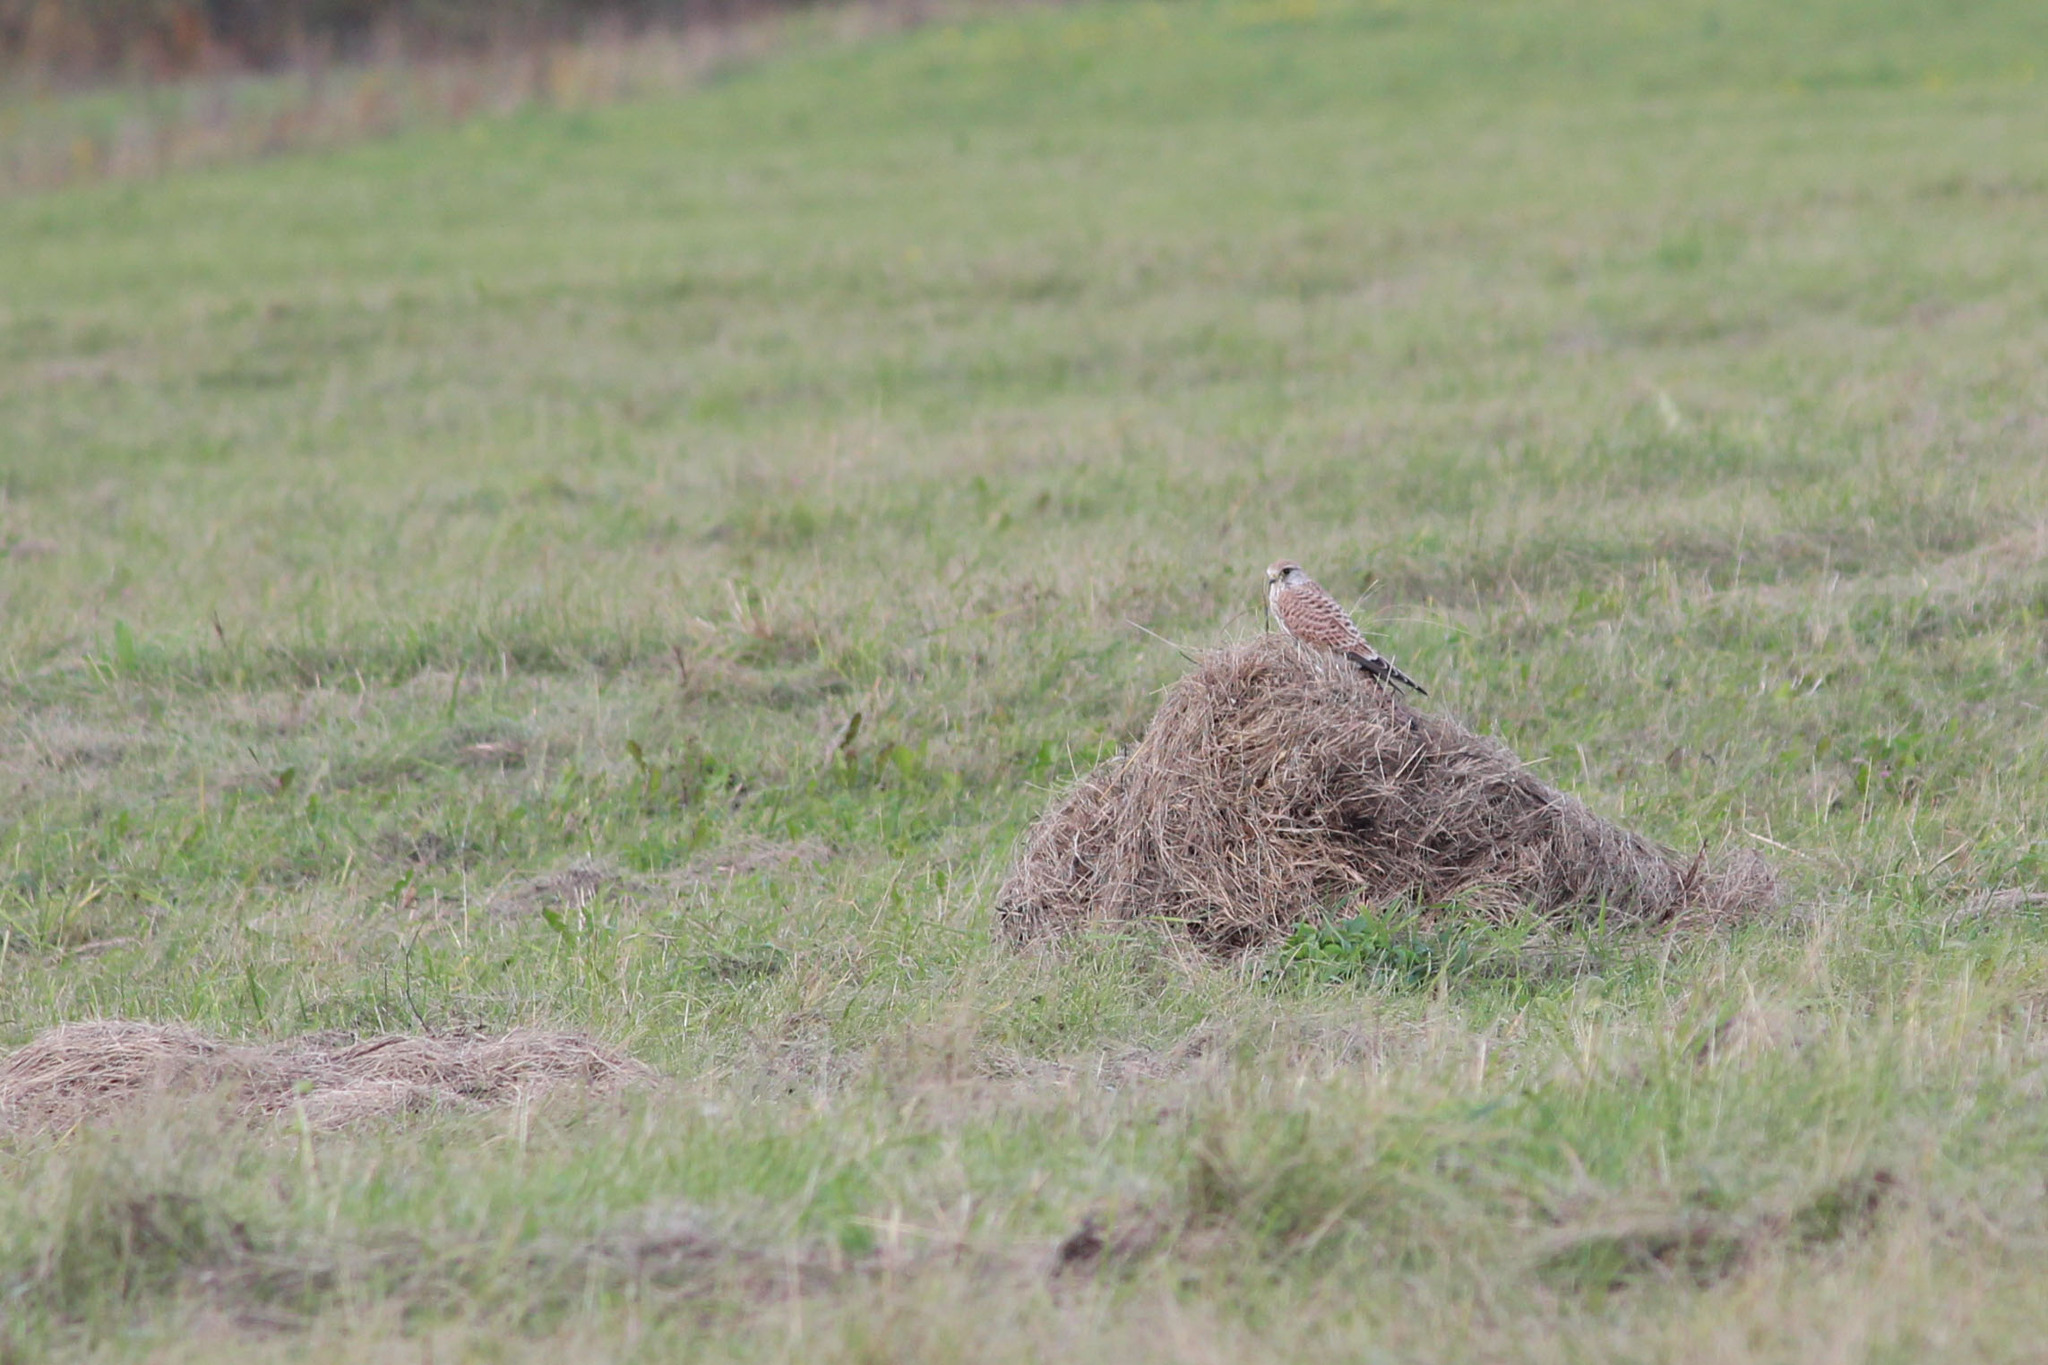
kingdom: Animalia
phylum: Chordata
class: Aves
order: Falconiformes
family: Falconidae
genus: Falco
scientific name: Falco tinnunculus
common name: Common kestrel
